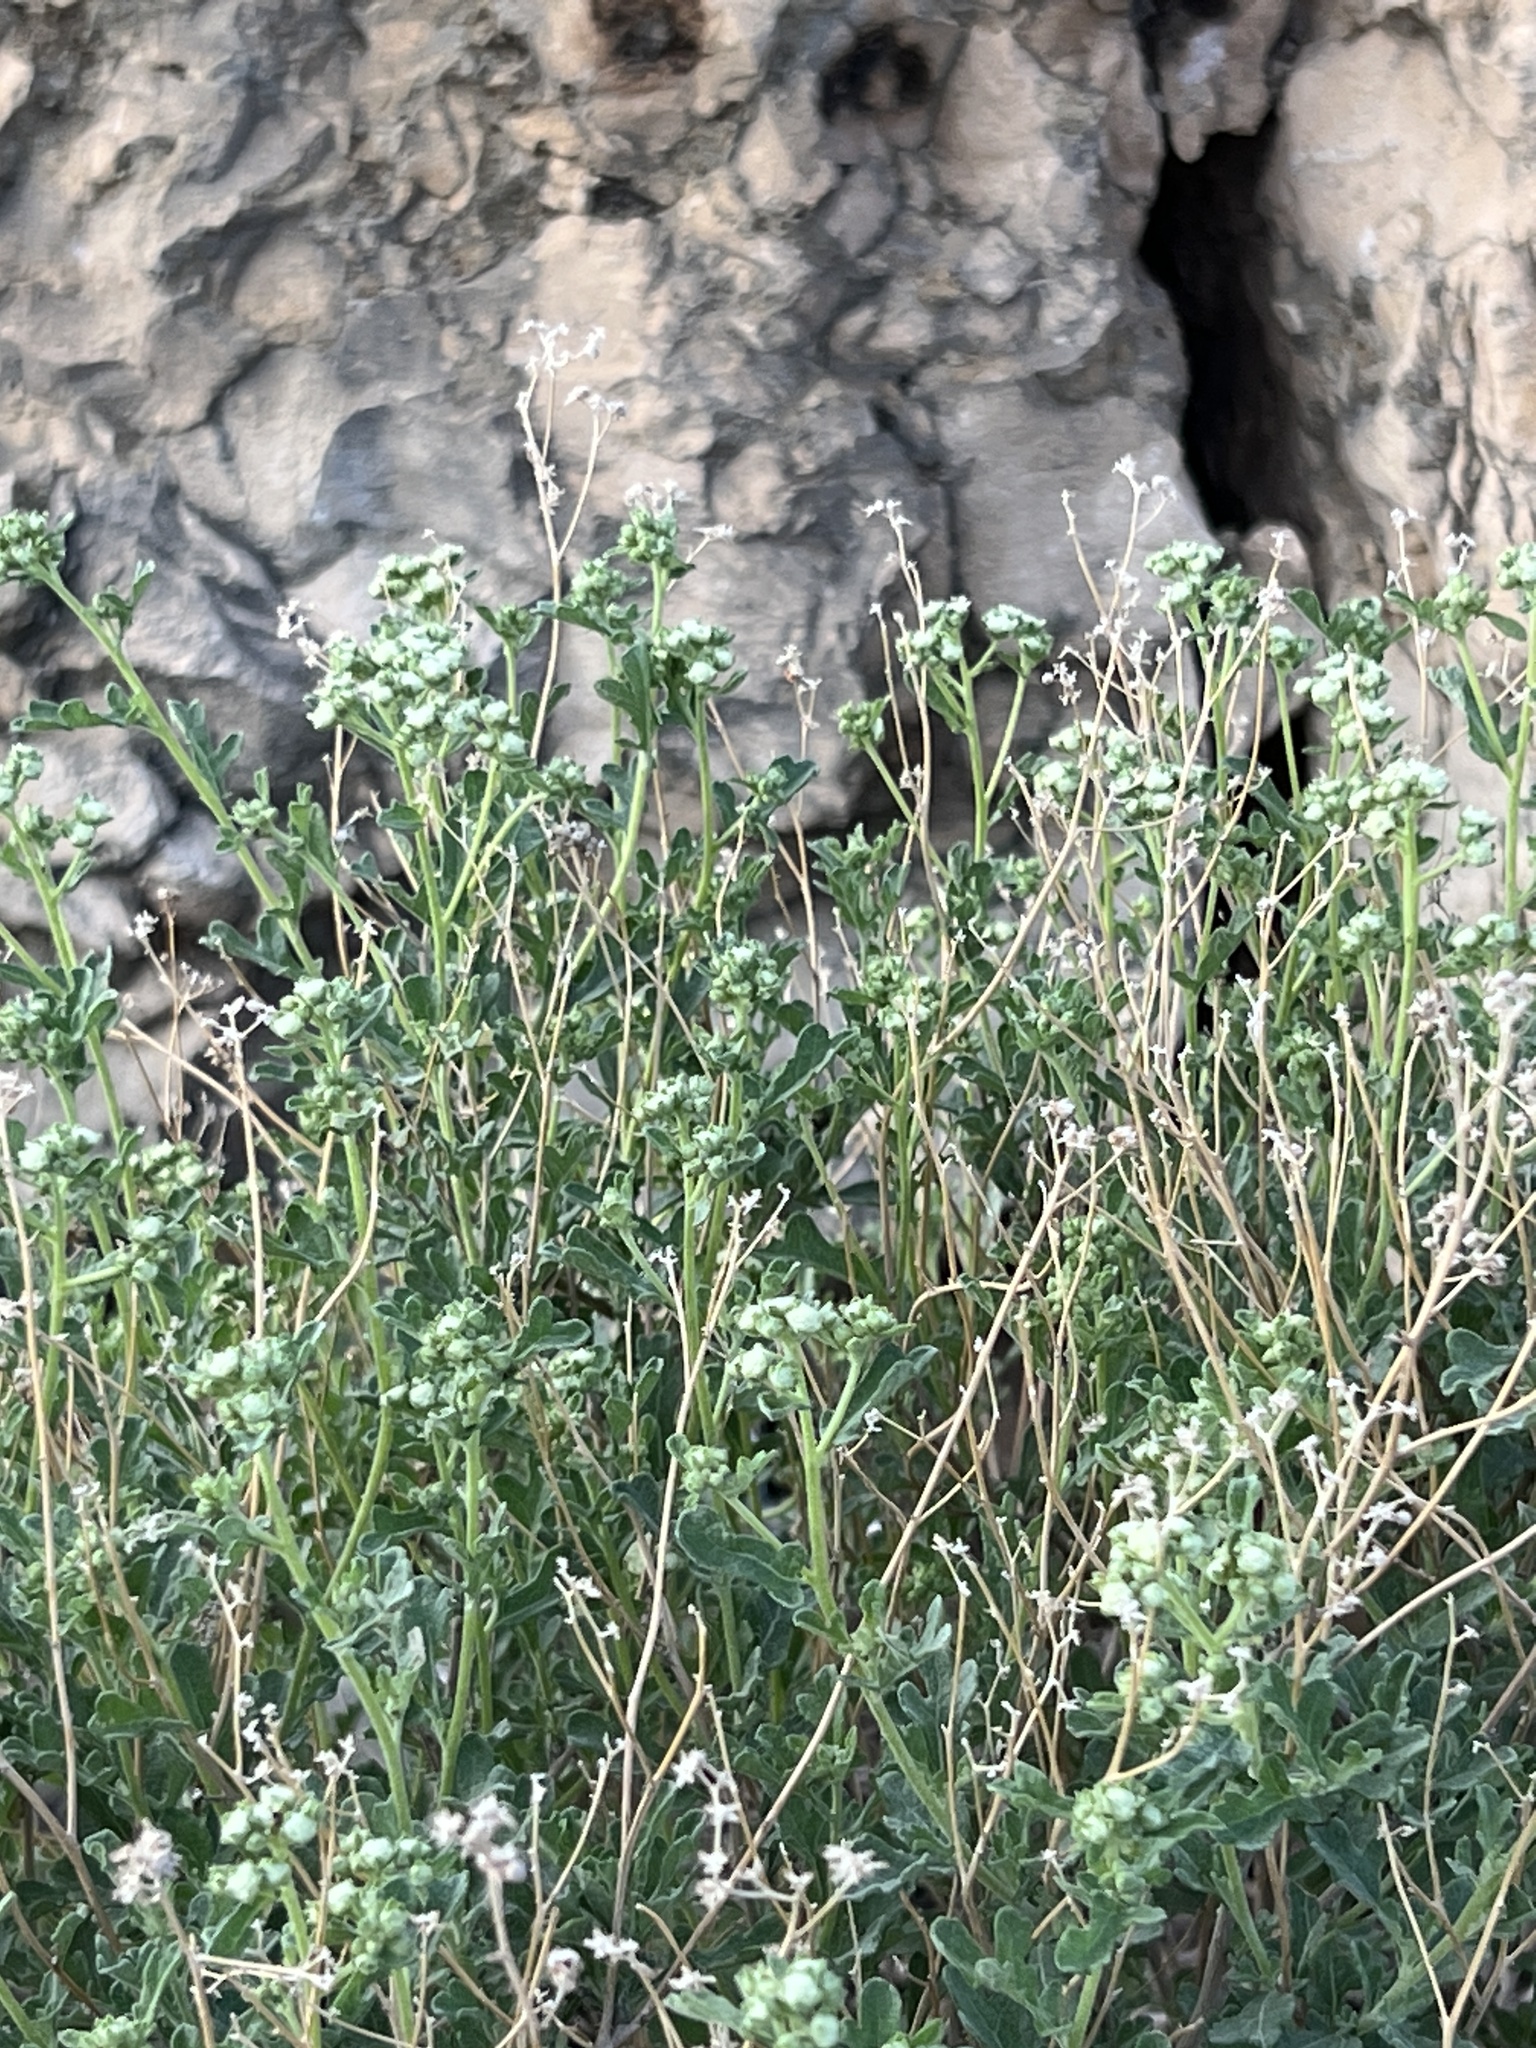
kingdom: Plantae
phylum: Tracheophyta
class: Magnoliopsida
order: Asterales
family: Asteraceae
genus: Parthenium
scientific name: Parthenium incanum
